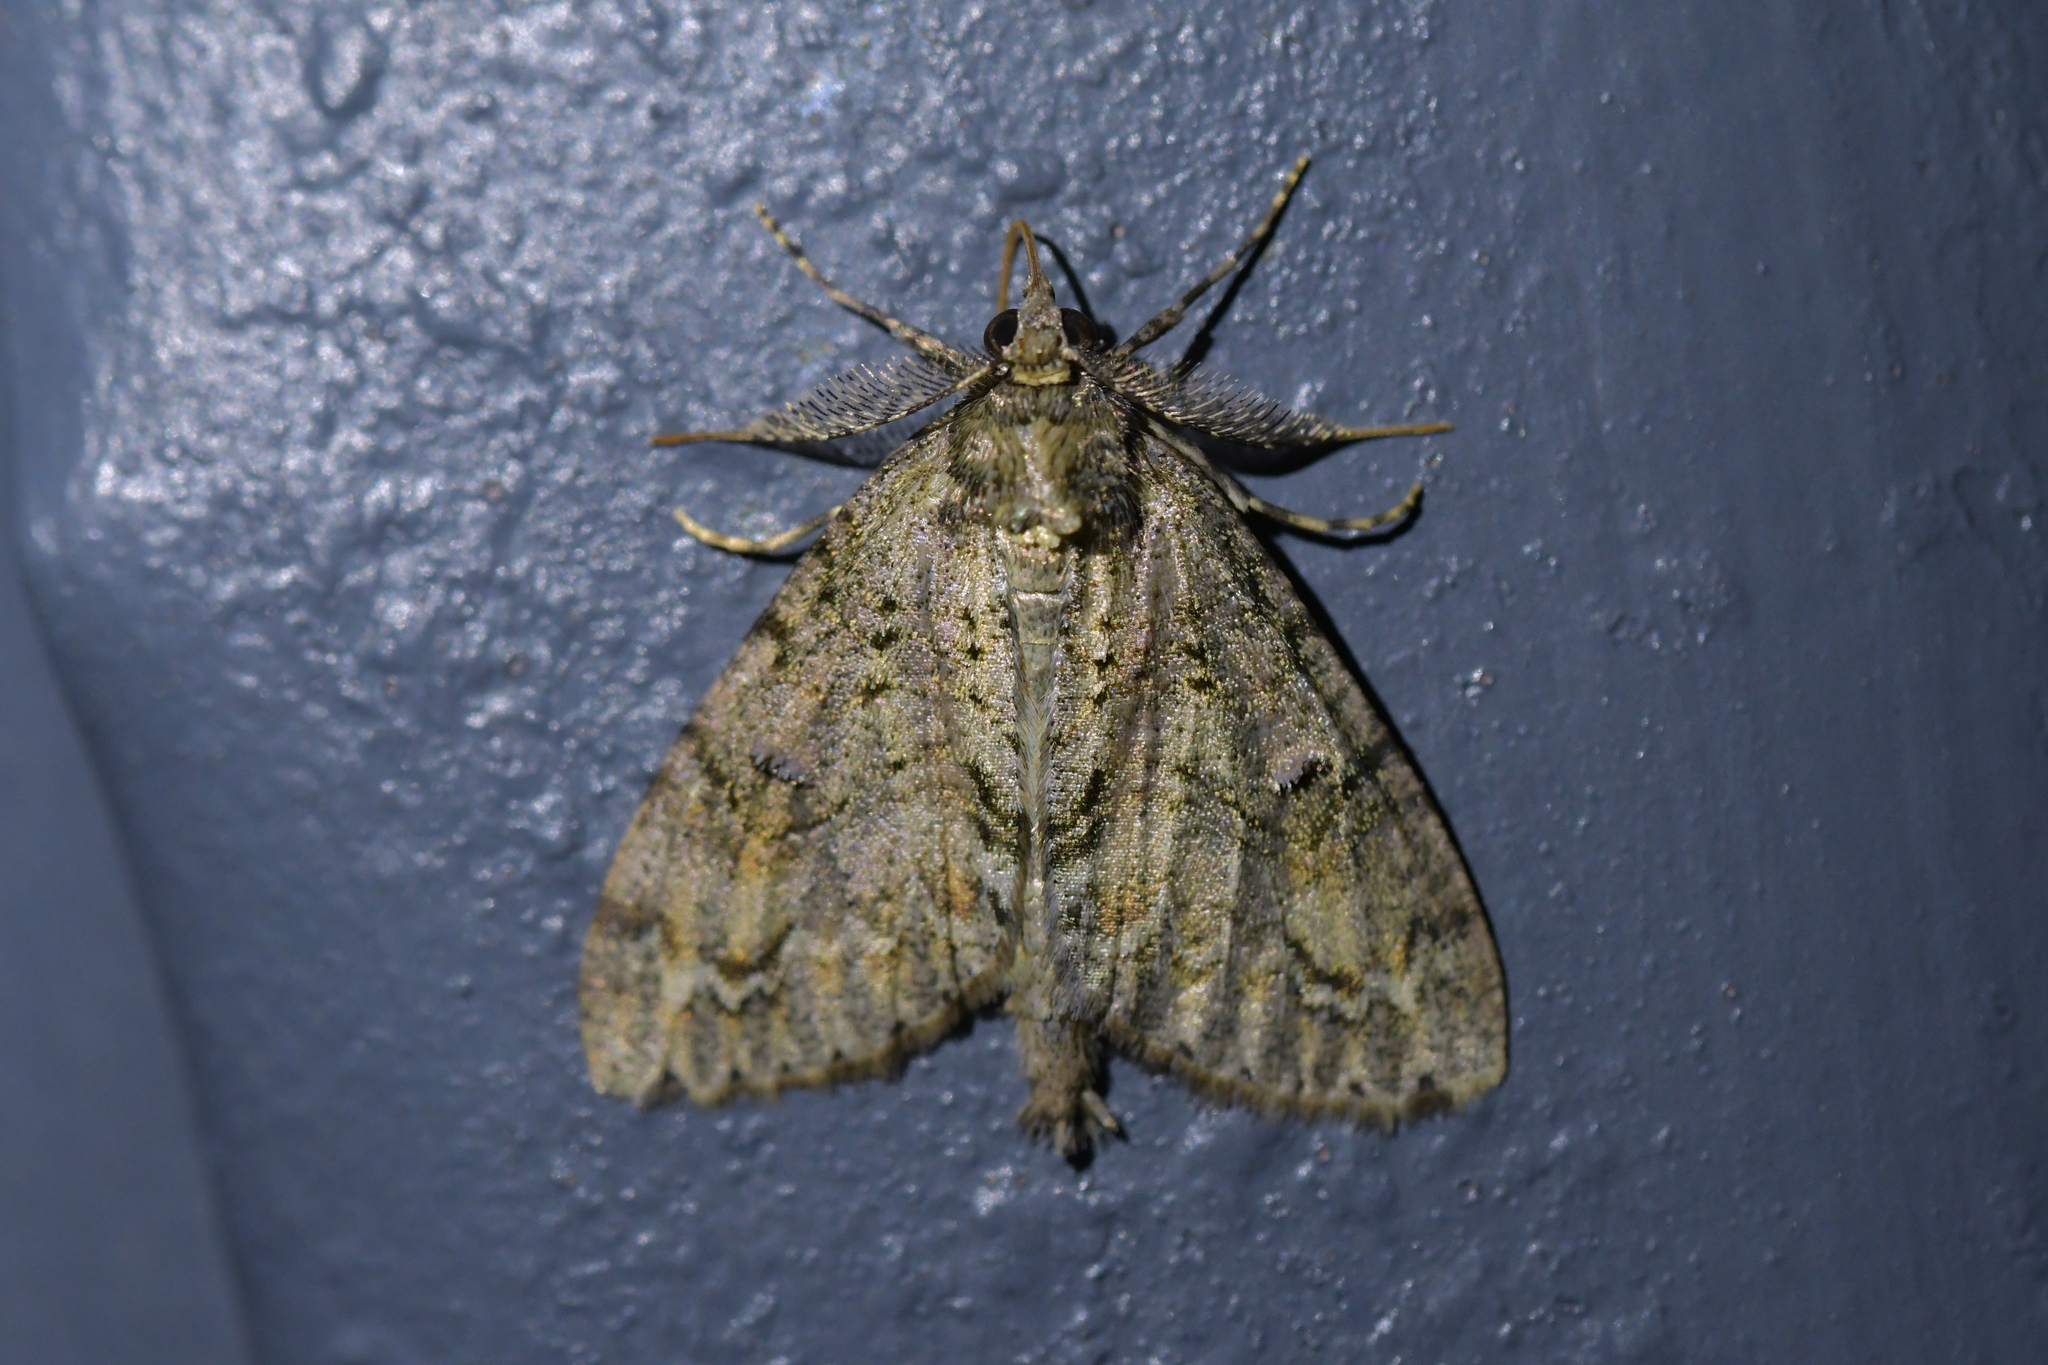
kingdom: Animalia
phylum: Arthropoda
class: Insecta
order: Lepidoptera
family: Geometridae
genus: Pseudocoremia
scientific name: Pseudocoremia suavis
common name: Common forest looper
